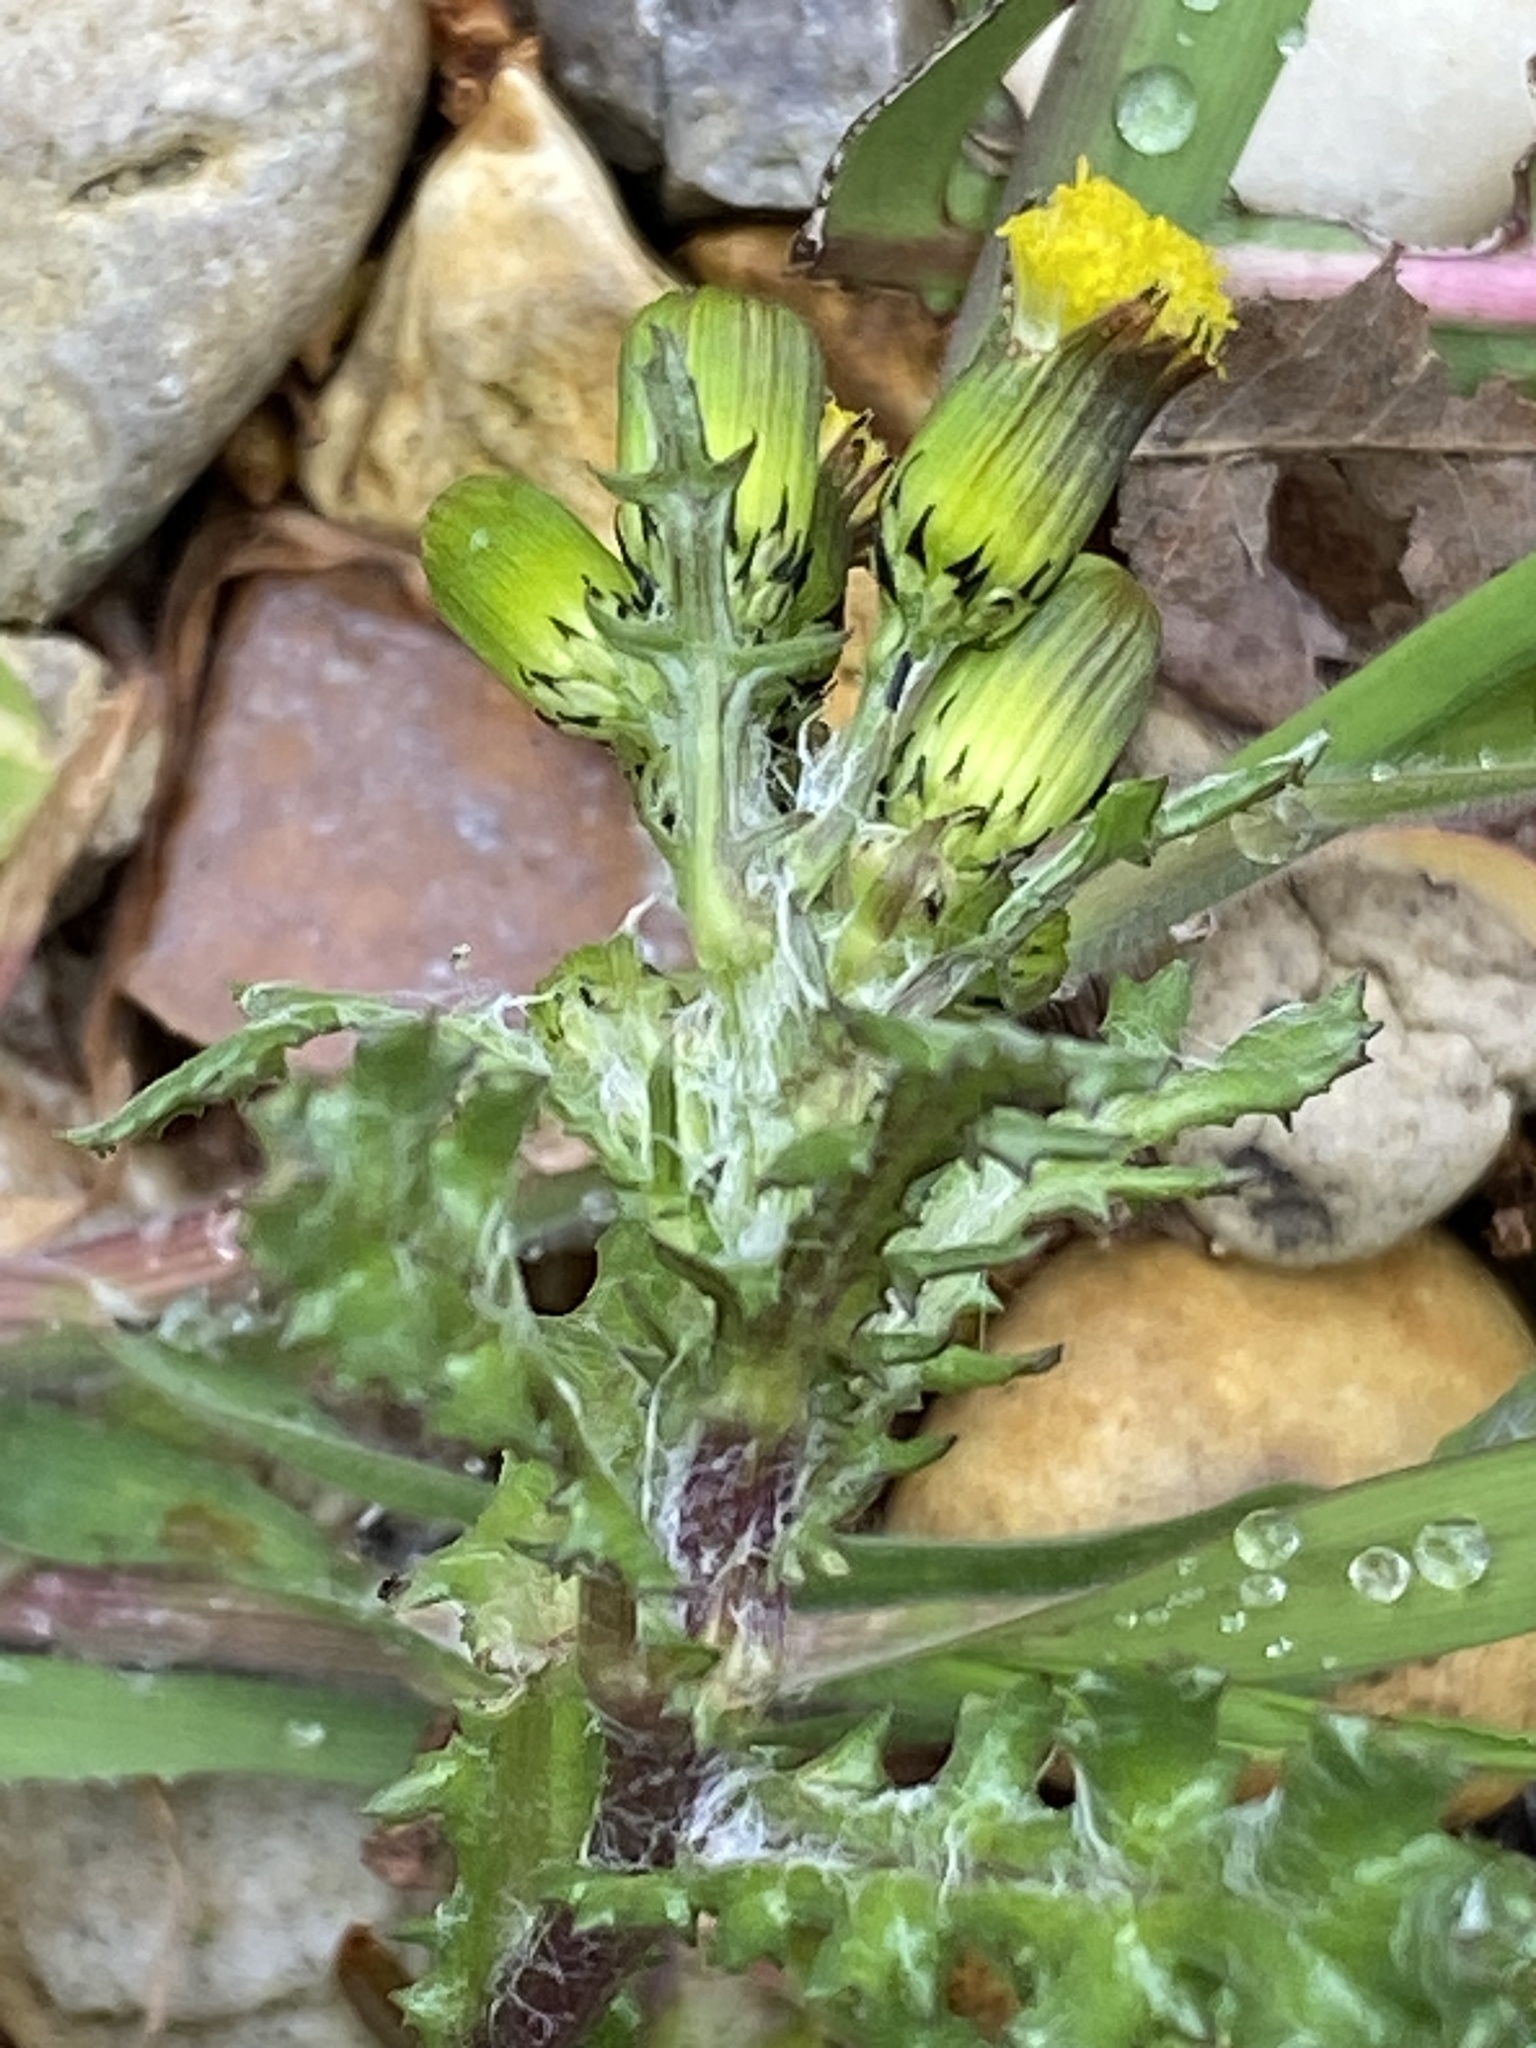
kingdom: Plantae
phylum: Tracheophyta
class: Magnoliopsida
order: Asterales
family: Asteraceae
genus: Senecio
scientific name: Senecio vulgaris
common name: Old-man-in-the-spring
